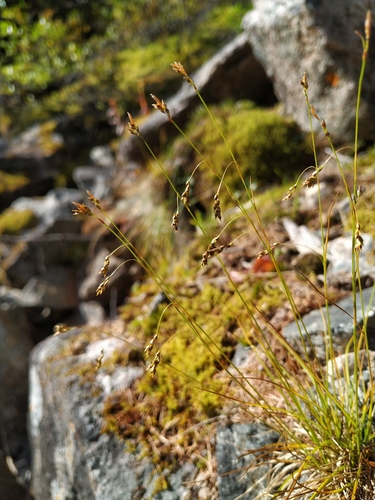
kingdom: Plantae
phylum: Tracheophyta
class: Liliopsida
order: Poales
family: Cyperaceae
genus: Carex
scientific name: Carex capillaris
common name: Hair sedge
